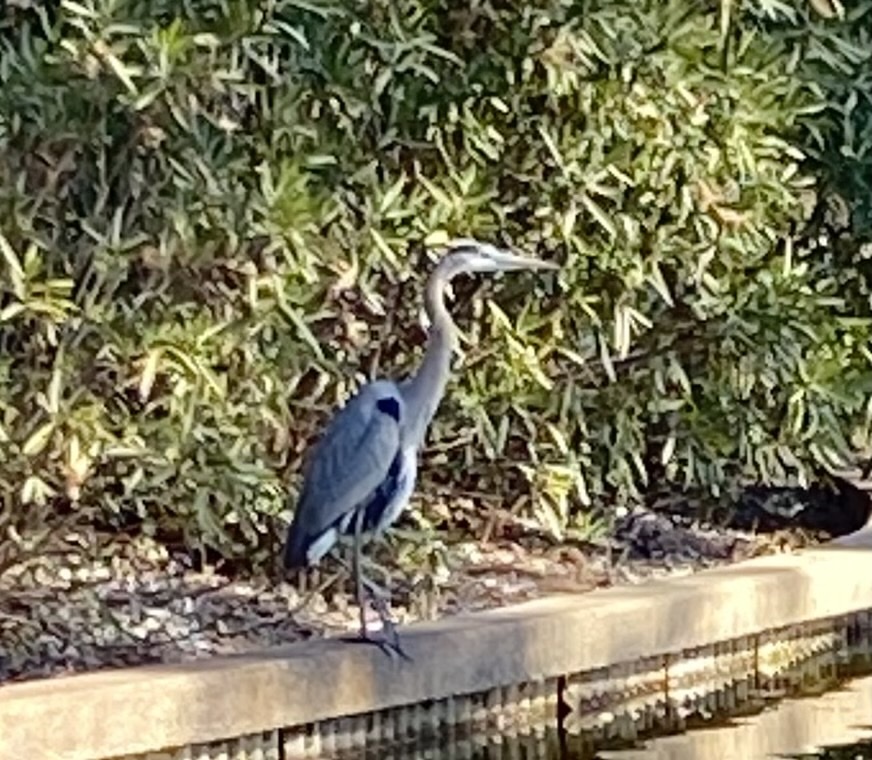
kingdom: Animalia
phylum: Chordata
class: Aves
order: Pelecaniformes
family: Ardeidae
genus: Ardea
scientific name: Ardea herodias
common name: Great blue heron
